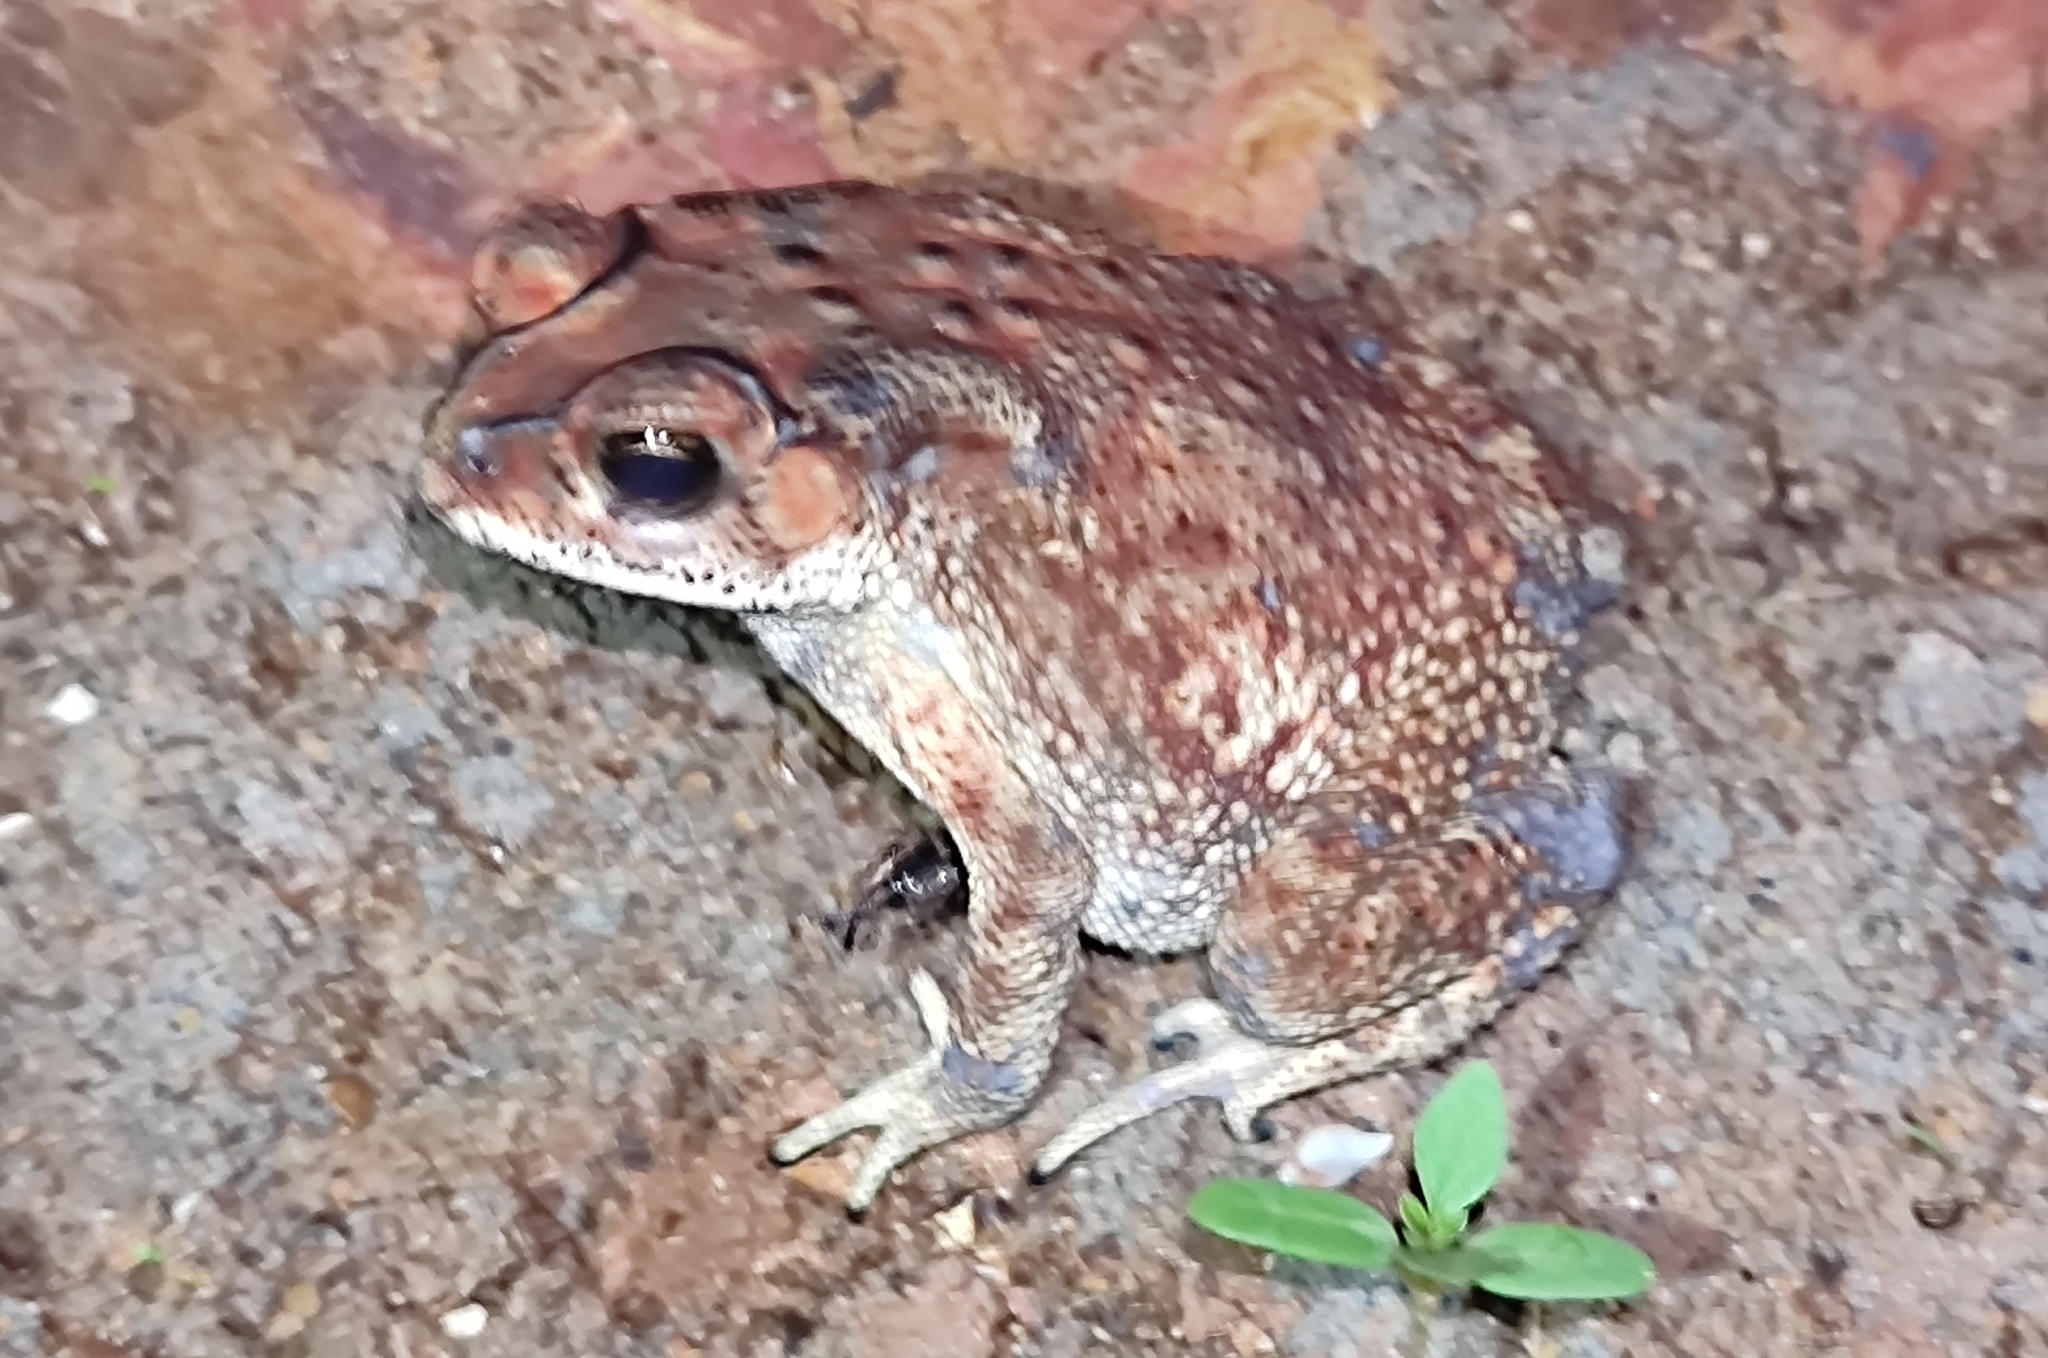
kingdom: Animalia
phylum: Chordata
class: Amphibia
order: Anura
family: Bufonidae
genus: Duttaphrynus
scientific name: Duttaphrynus melanostictus
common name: Common sunda toad
